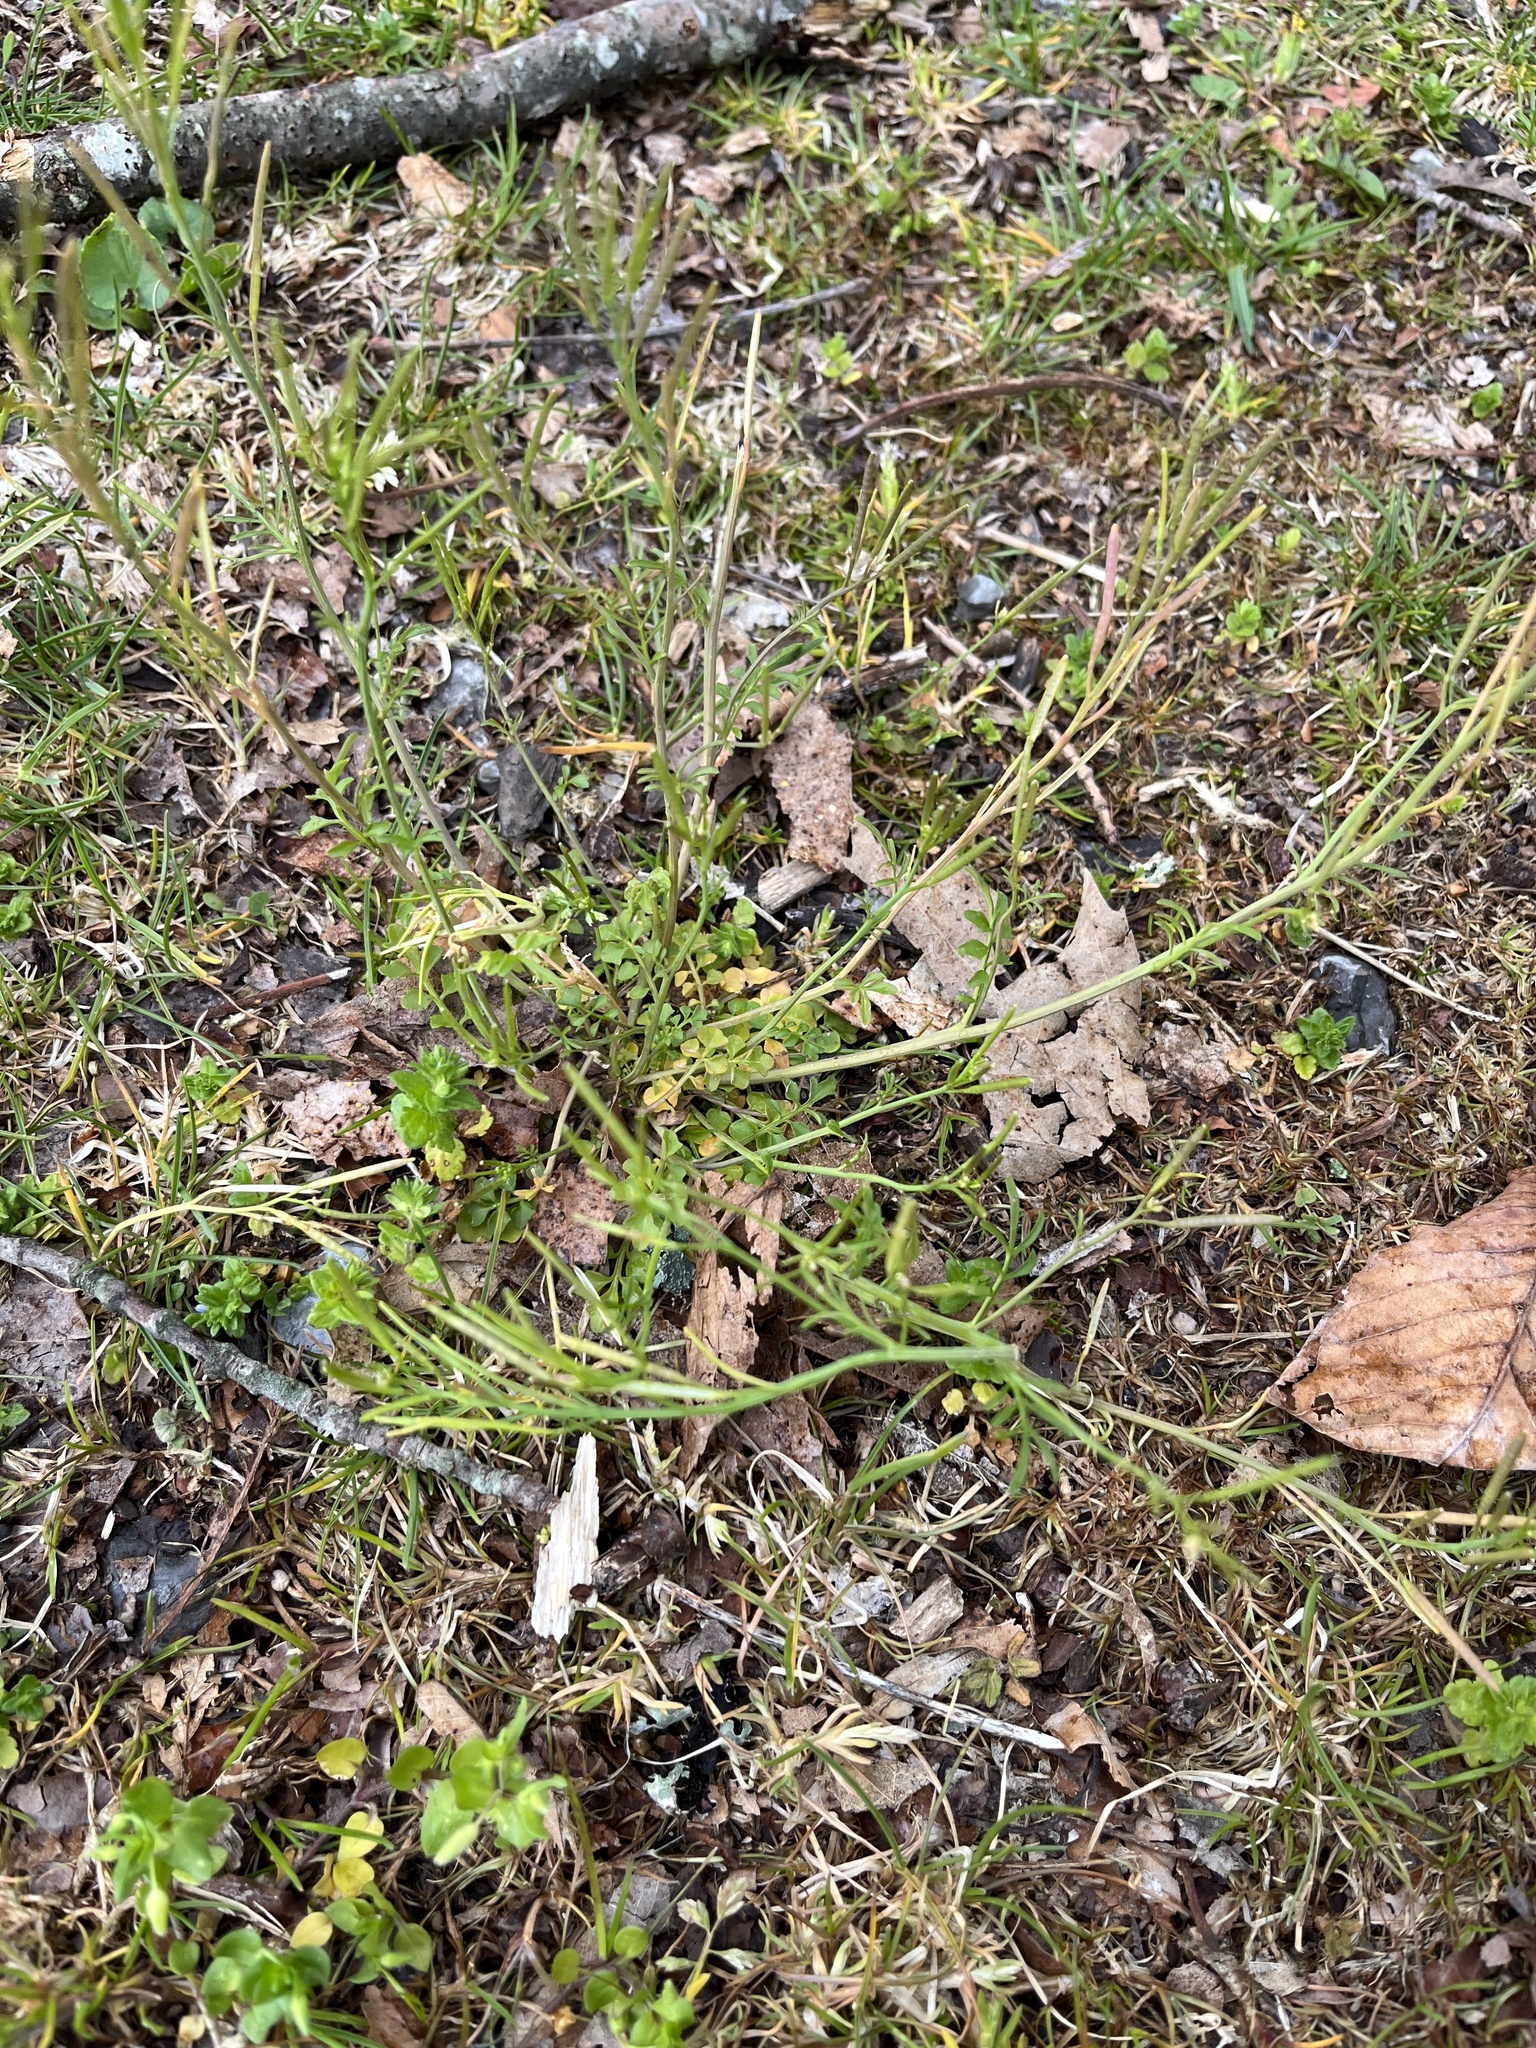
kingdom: Plantae
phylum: Tracheophyta
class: Magnoliopsida
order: Brassicales
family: Brassicaceae
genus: Cardamine
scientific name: Cardamine hirsuta
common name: Hairy bittercress
